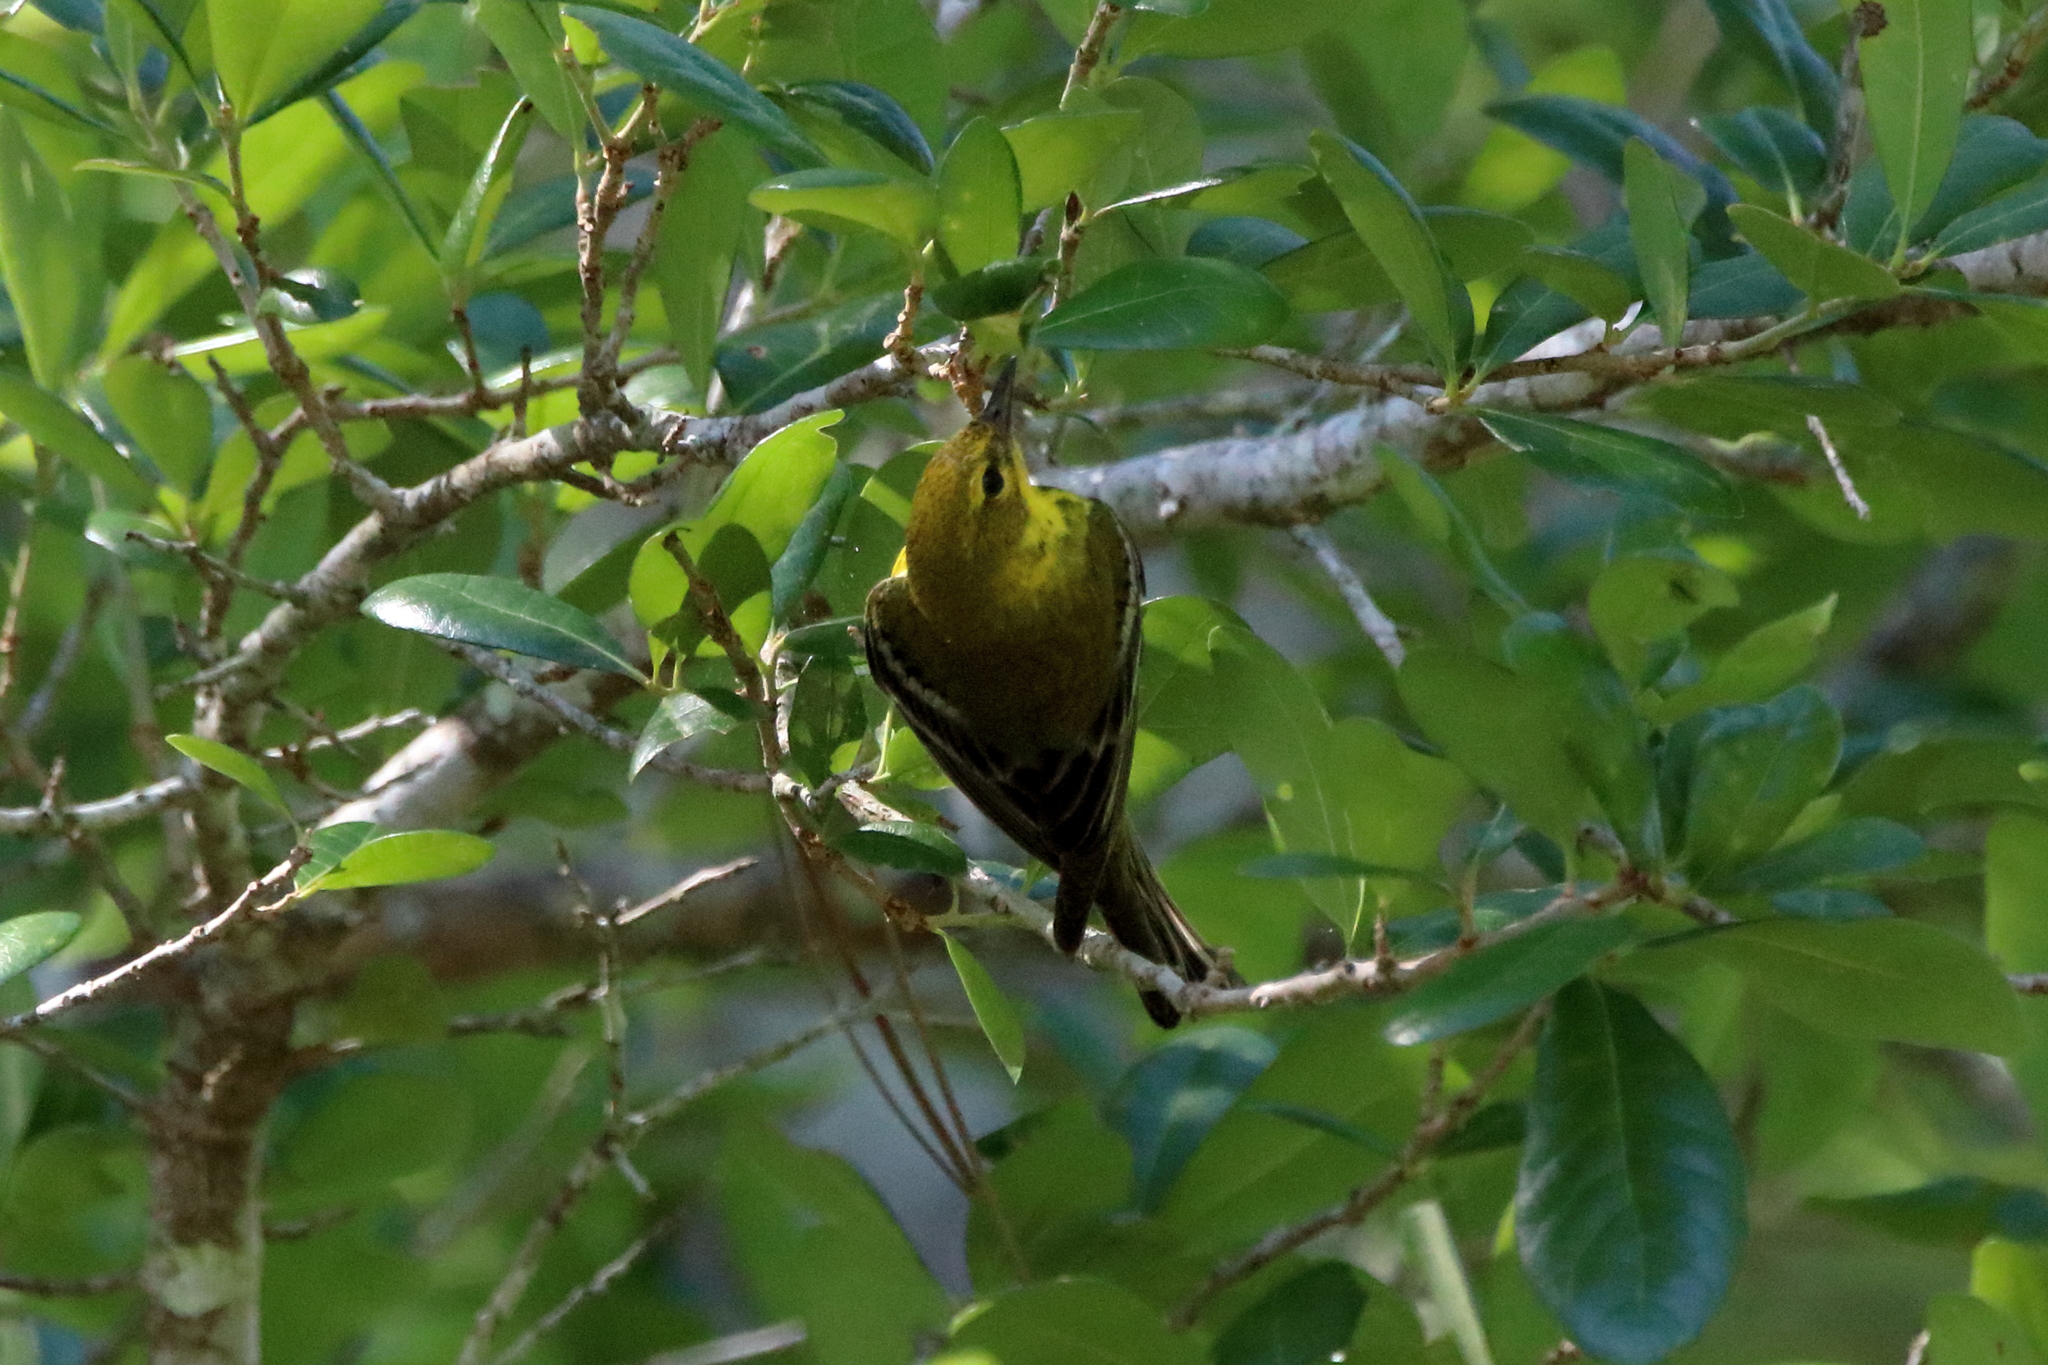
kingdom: Animalia
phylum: Chordata
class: Aves
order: Passeriformes
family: Parulidae
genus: Setophaga
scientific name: Setophaga pinus
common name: Pine warbler
